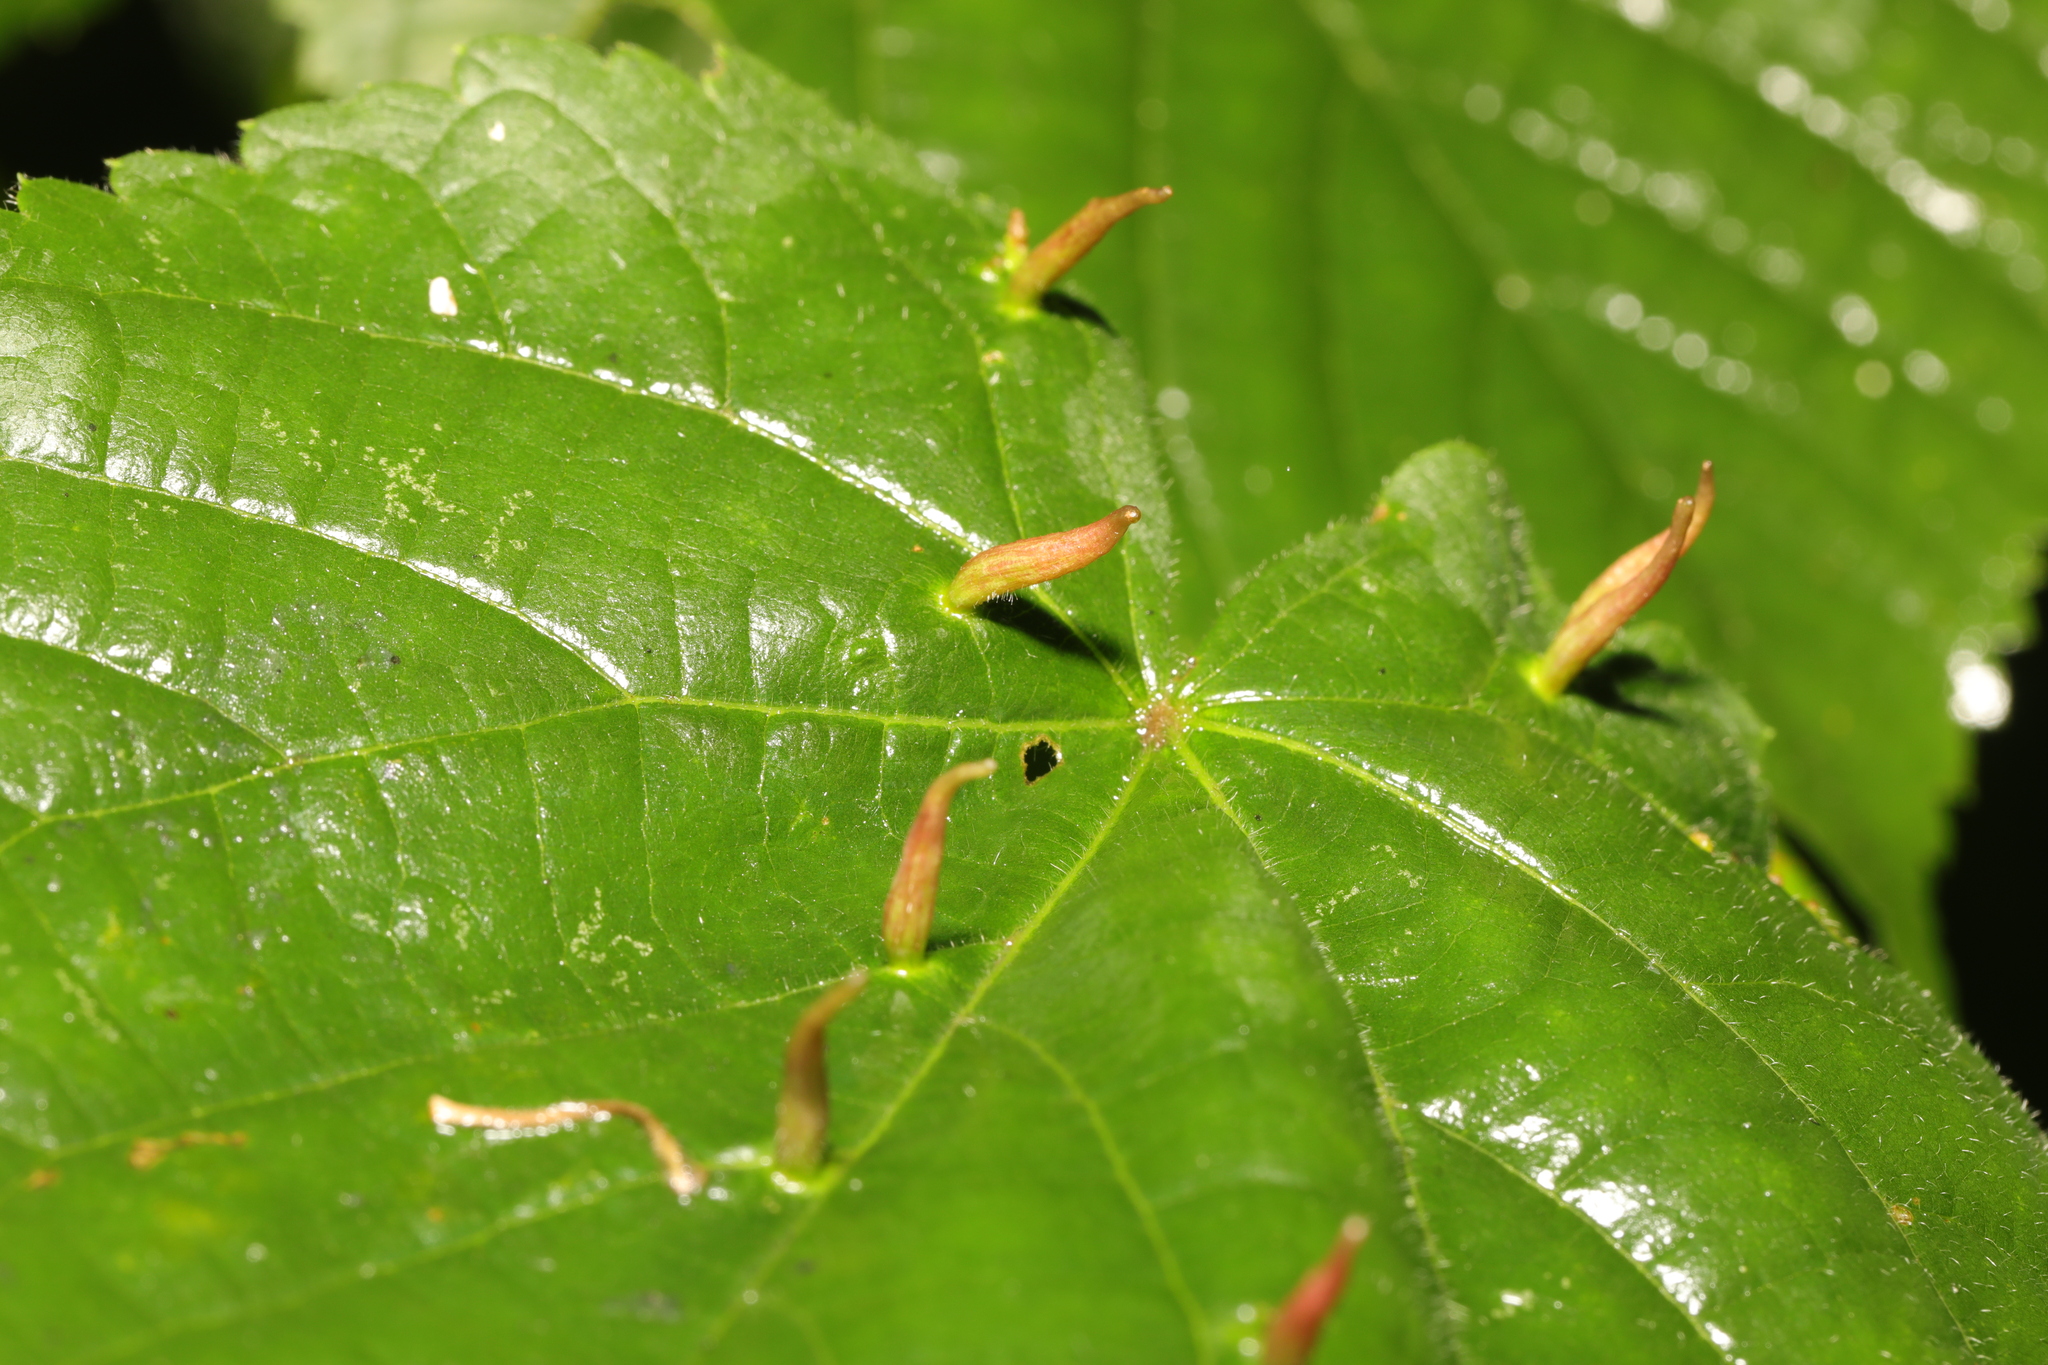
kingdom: Animalia
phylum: Arthropoda
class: Arachnida
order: Trombidiformes
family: Eriophyidae
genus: Eriophyes
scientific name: Eriophyes tiliae
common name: Red nail gall mite
